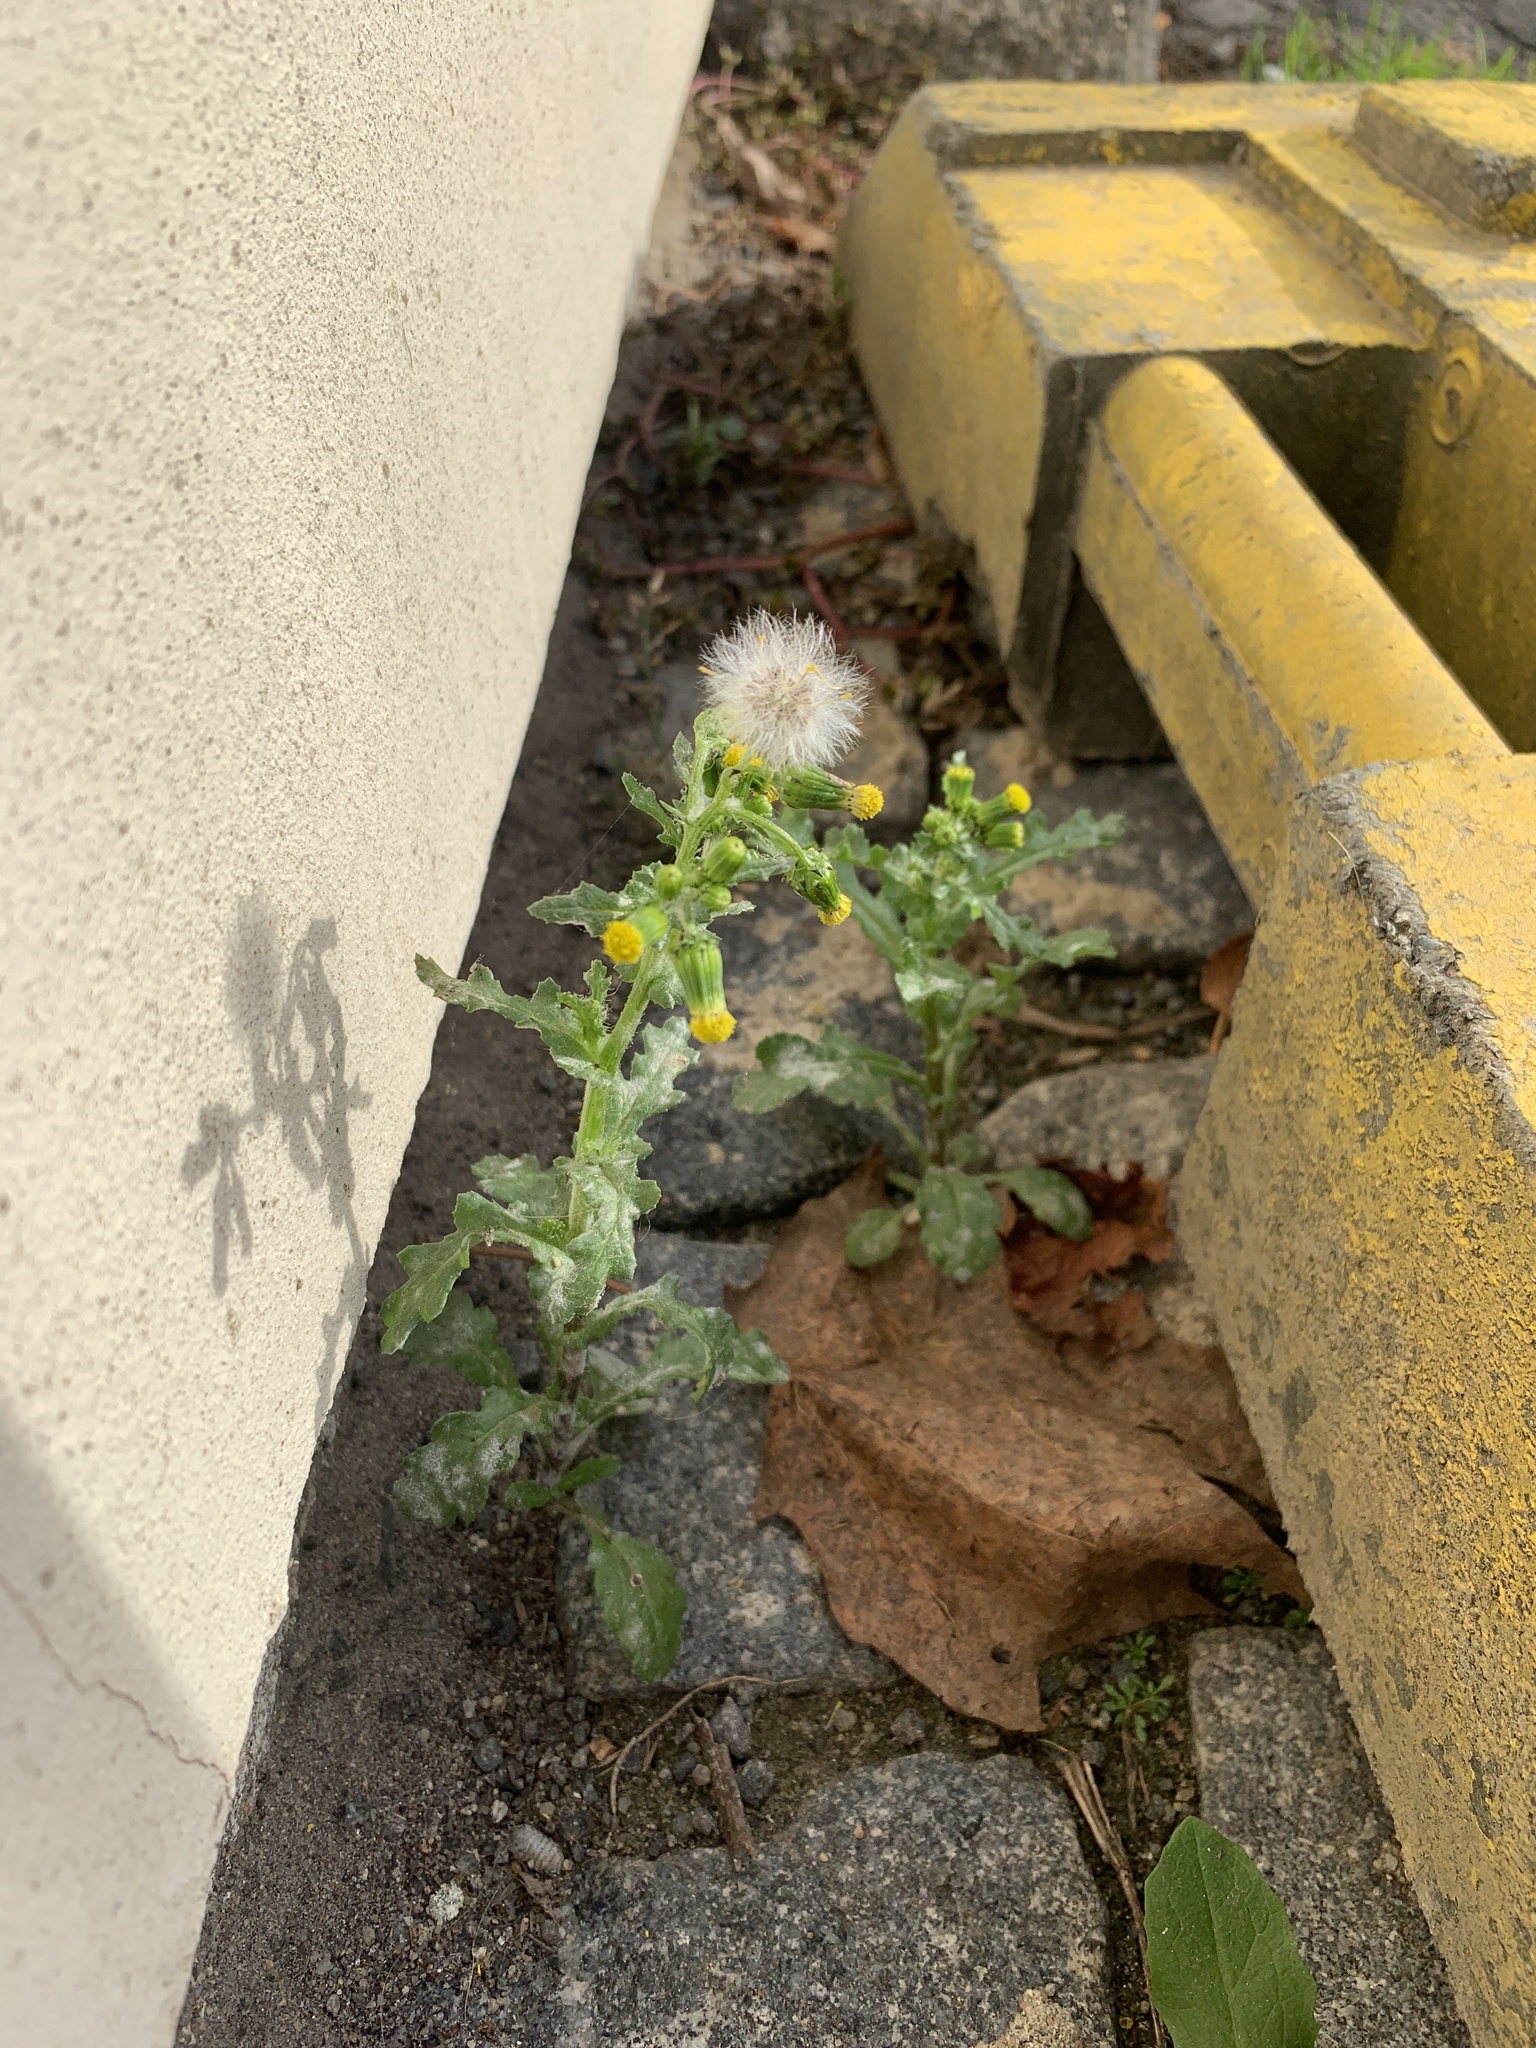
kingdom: Plantae
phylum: Tracheophyta
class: Magnoliopsida
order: Asterales
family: Asteraceae
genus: Senecio
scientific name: Senecio vulgaris
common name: Old-man-in-the-spring
